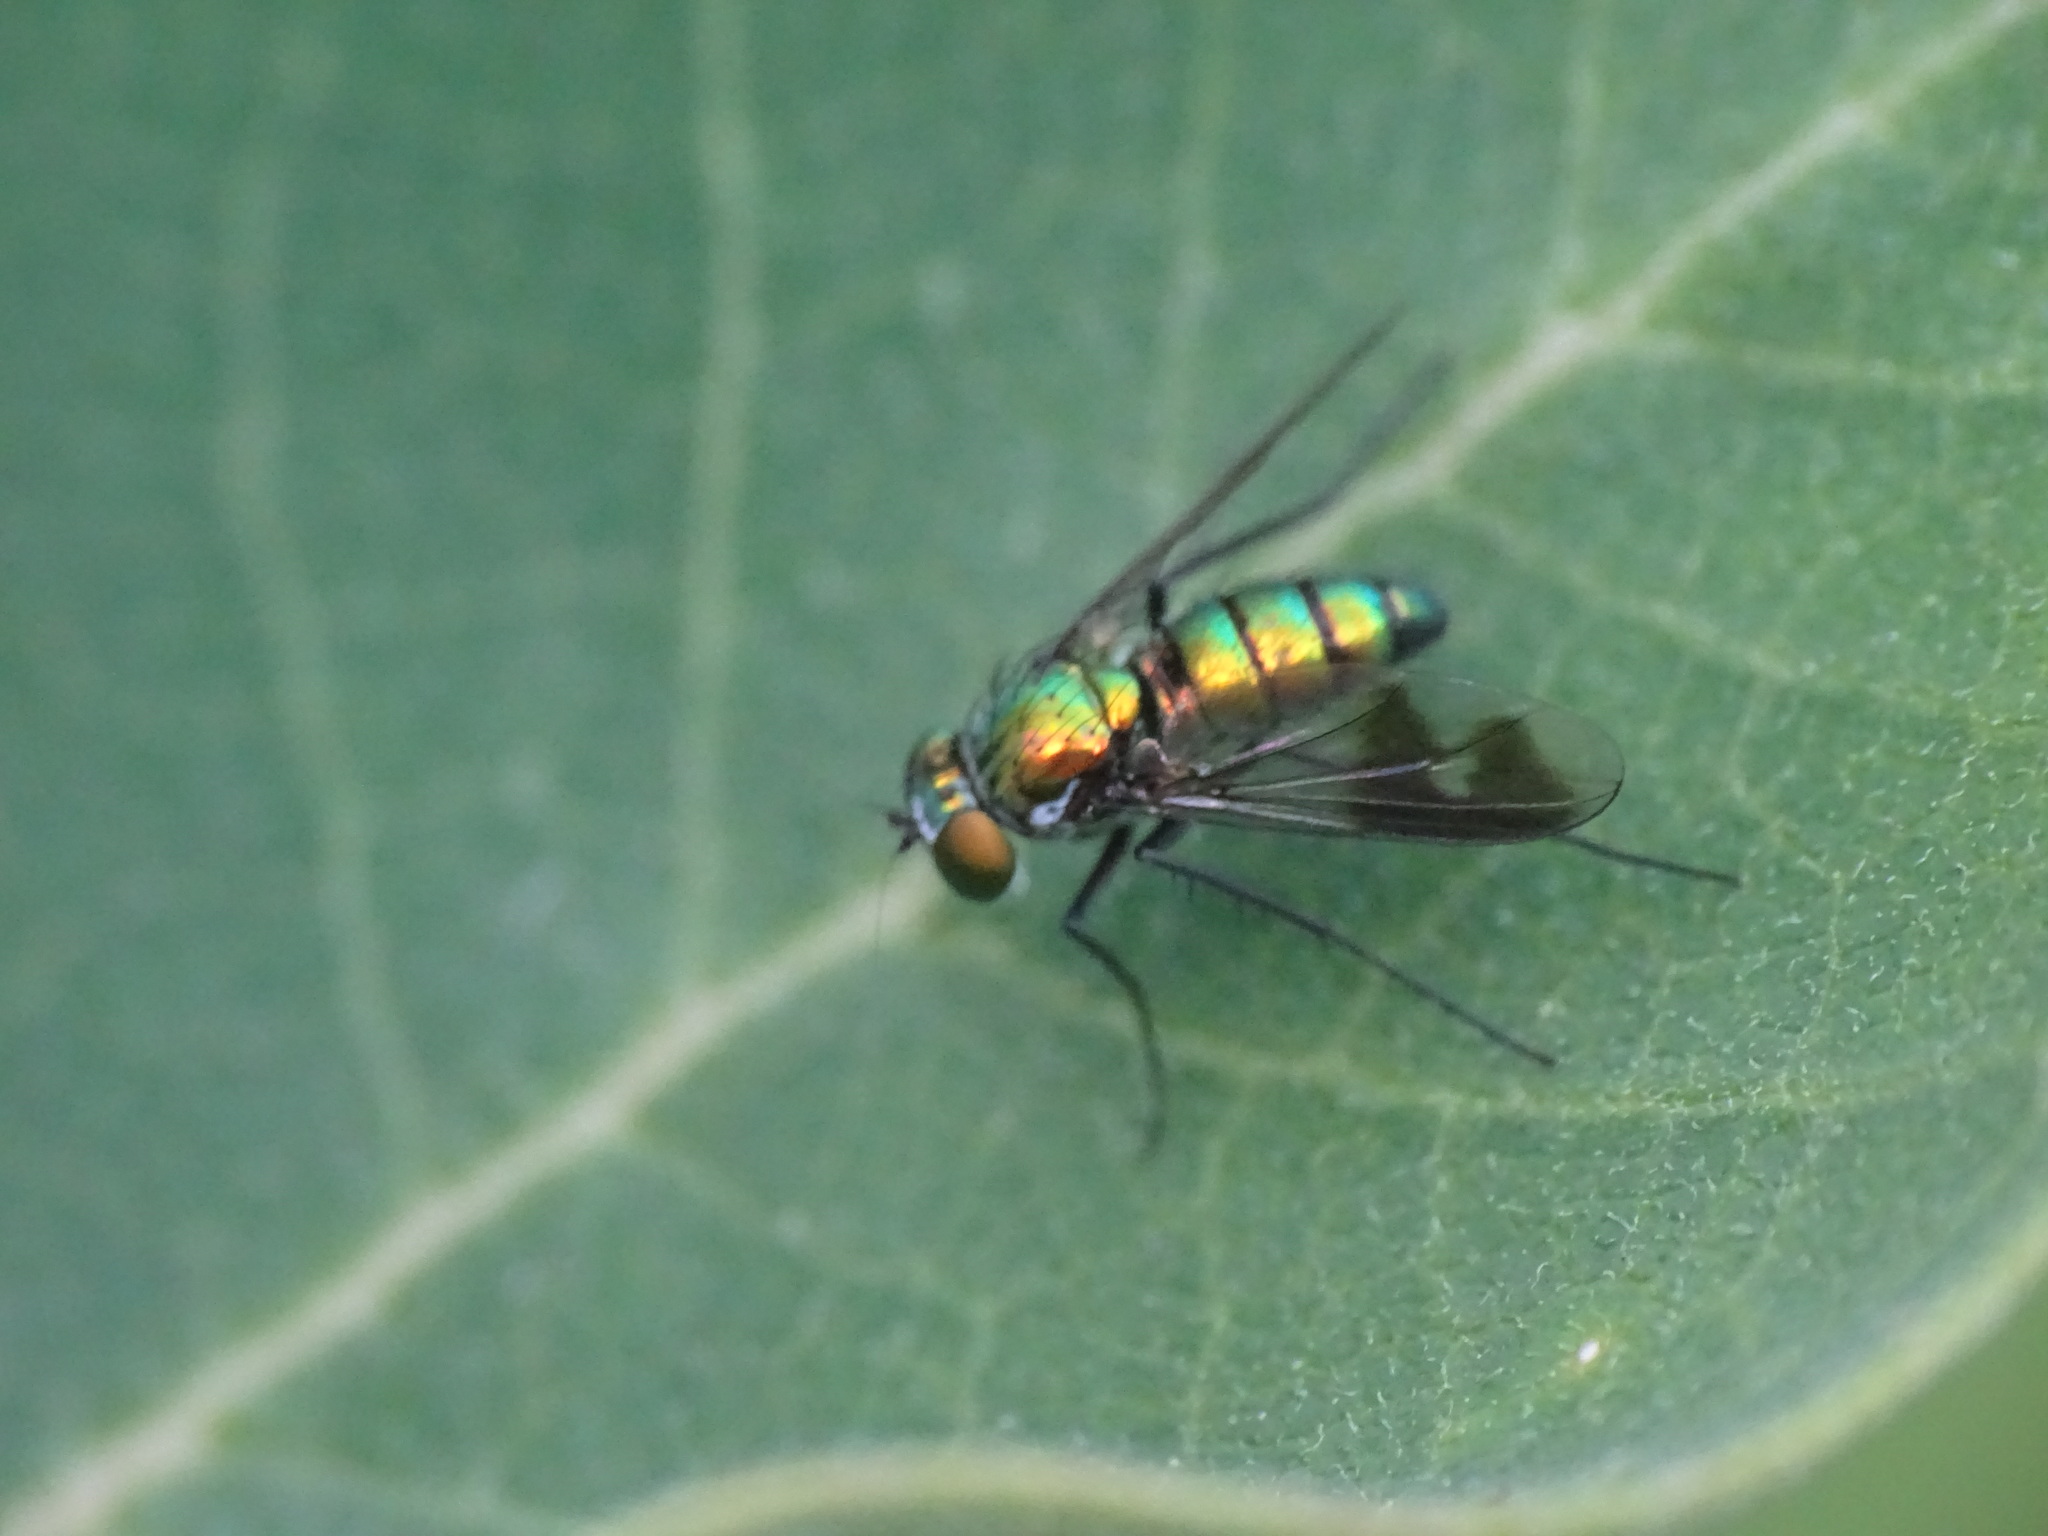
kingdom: Animalia
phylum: Arthropoda
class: Insecta
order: Diptera
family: Dolichopodidae
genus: Condylostylus
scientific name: Condylostylus patibulatus
